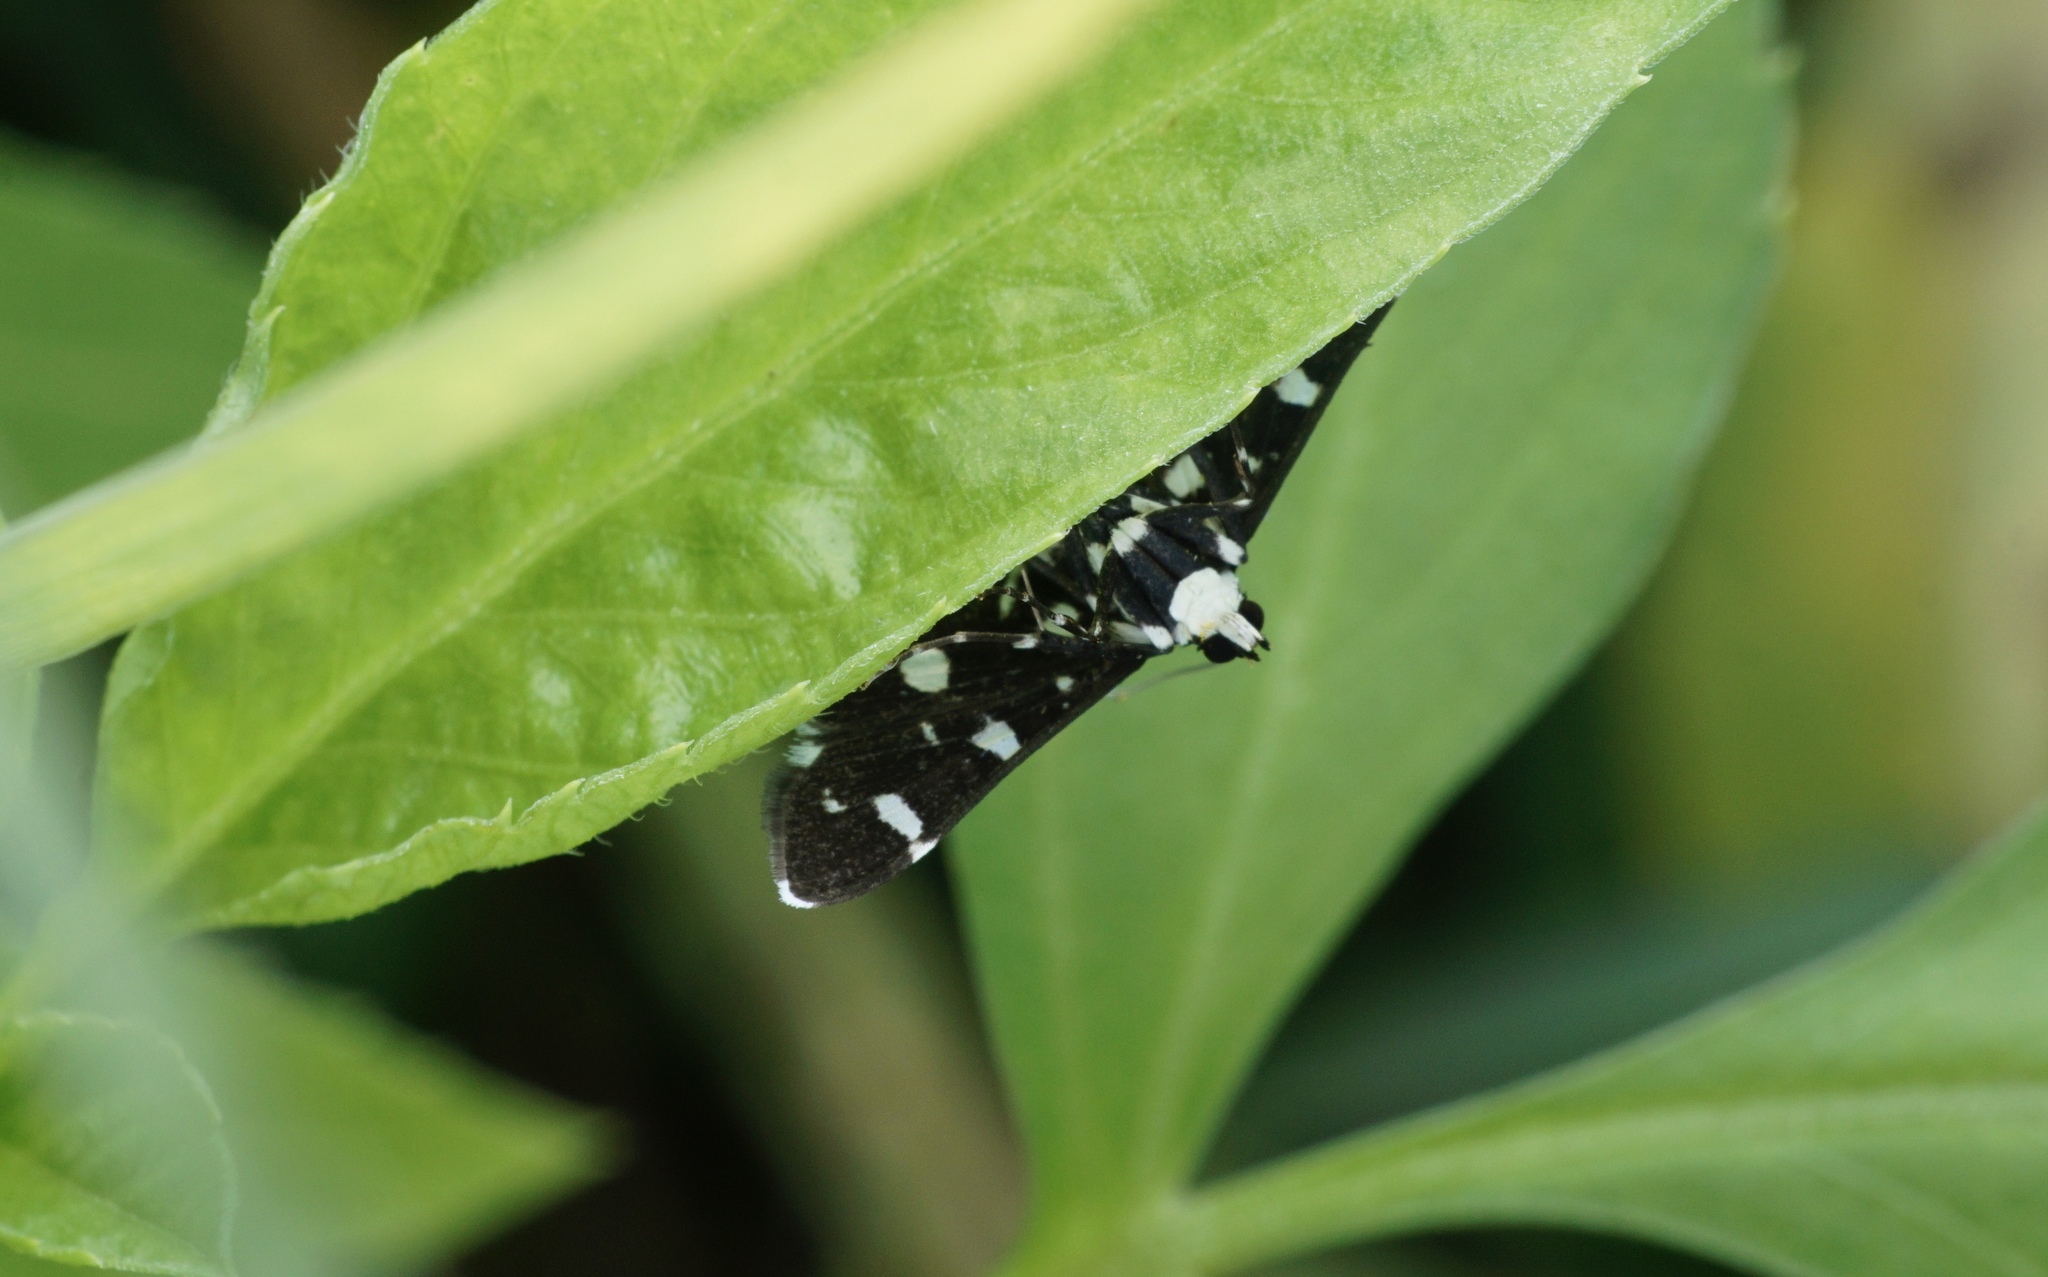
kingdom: Animalia
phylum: Arthropoda
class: Insecta
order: Lepidoptera
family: Crambidae
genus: Bocchoris
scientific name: Bocchoris inspersalis
